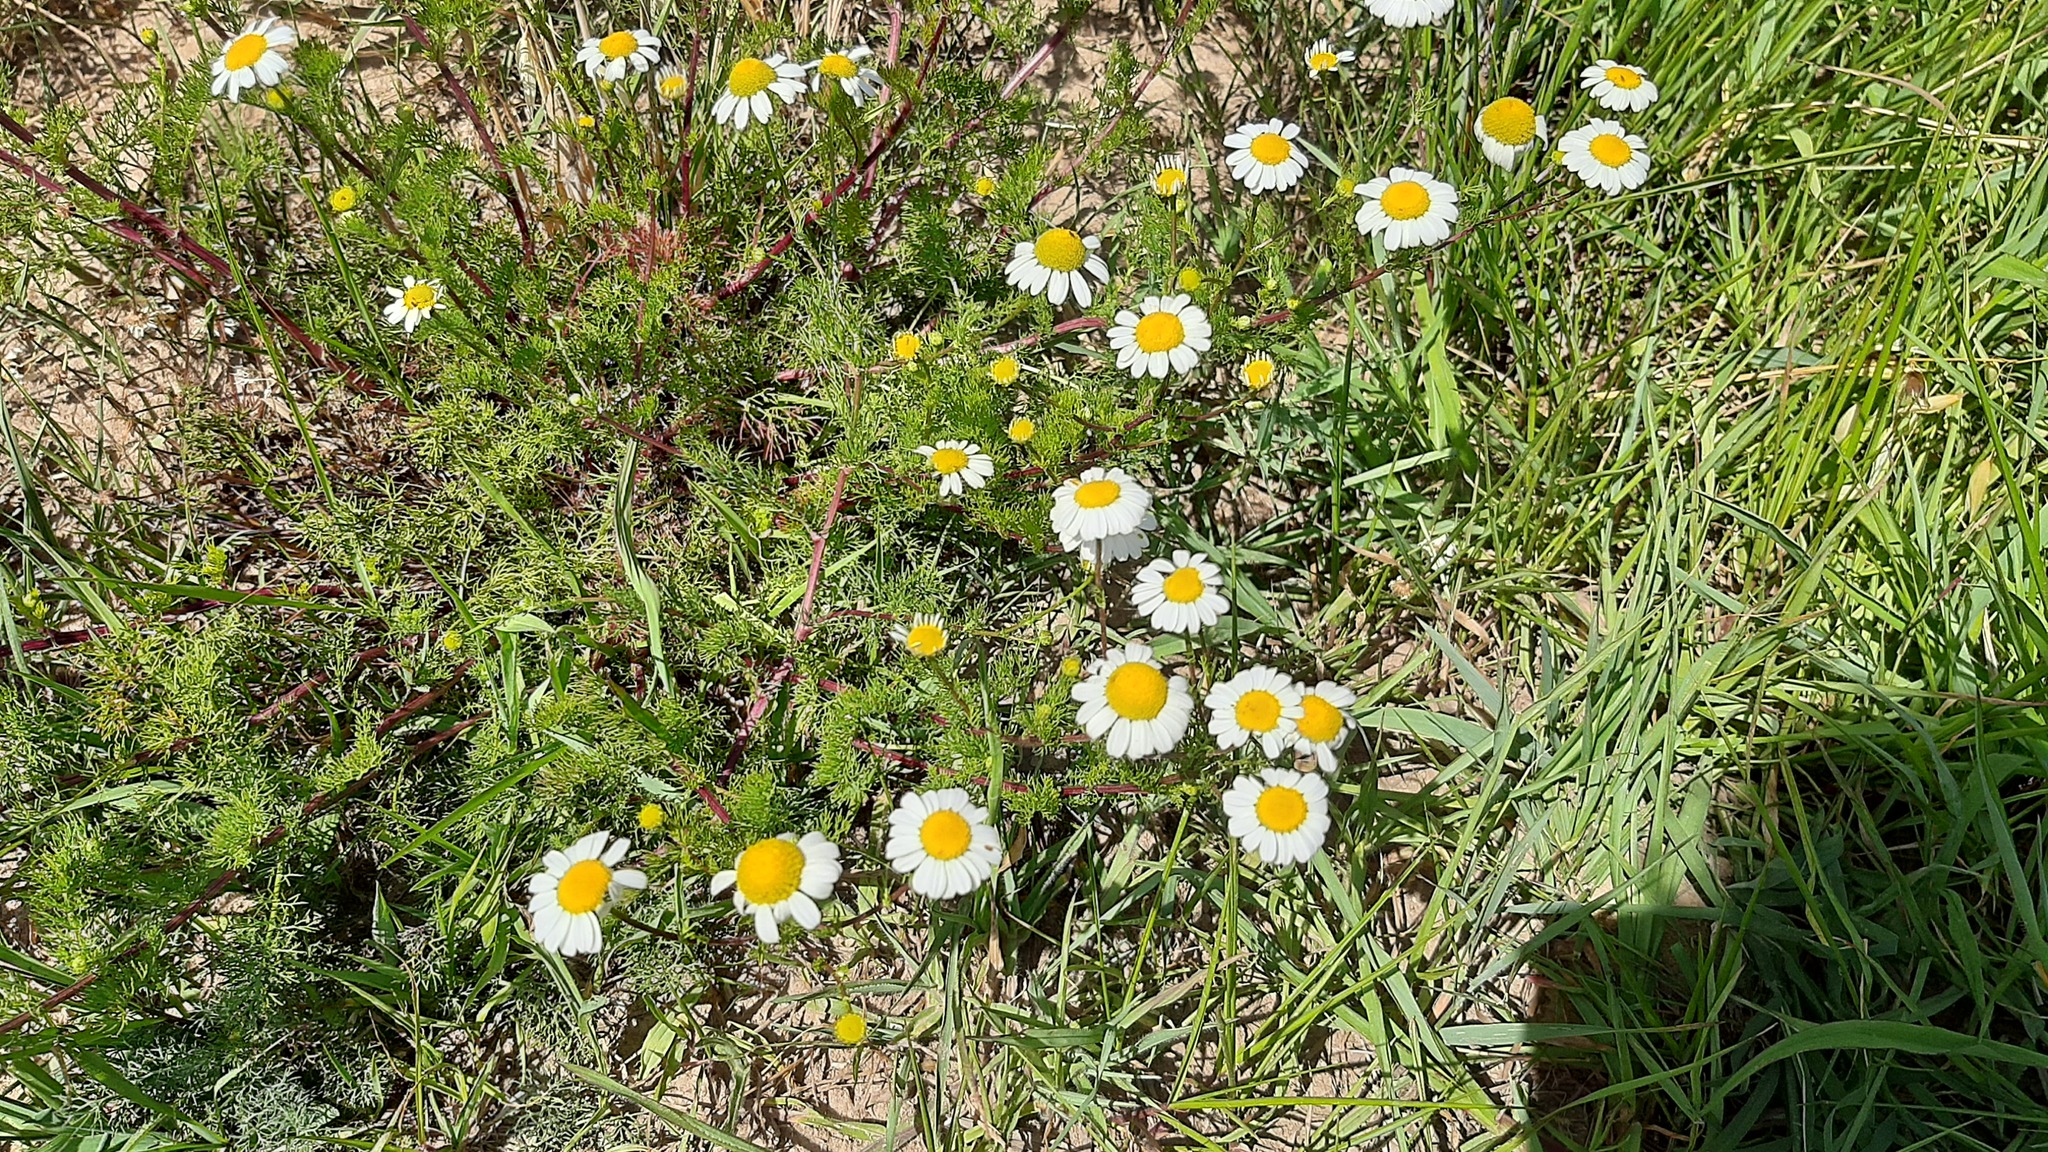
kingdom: Plantae
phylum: Tracheophyta
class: Magnoliopsida
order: Asterales
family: Asteraceae
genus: Matricaria
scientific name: Matricaria chamomilla
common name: Scented mayweed
